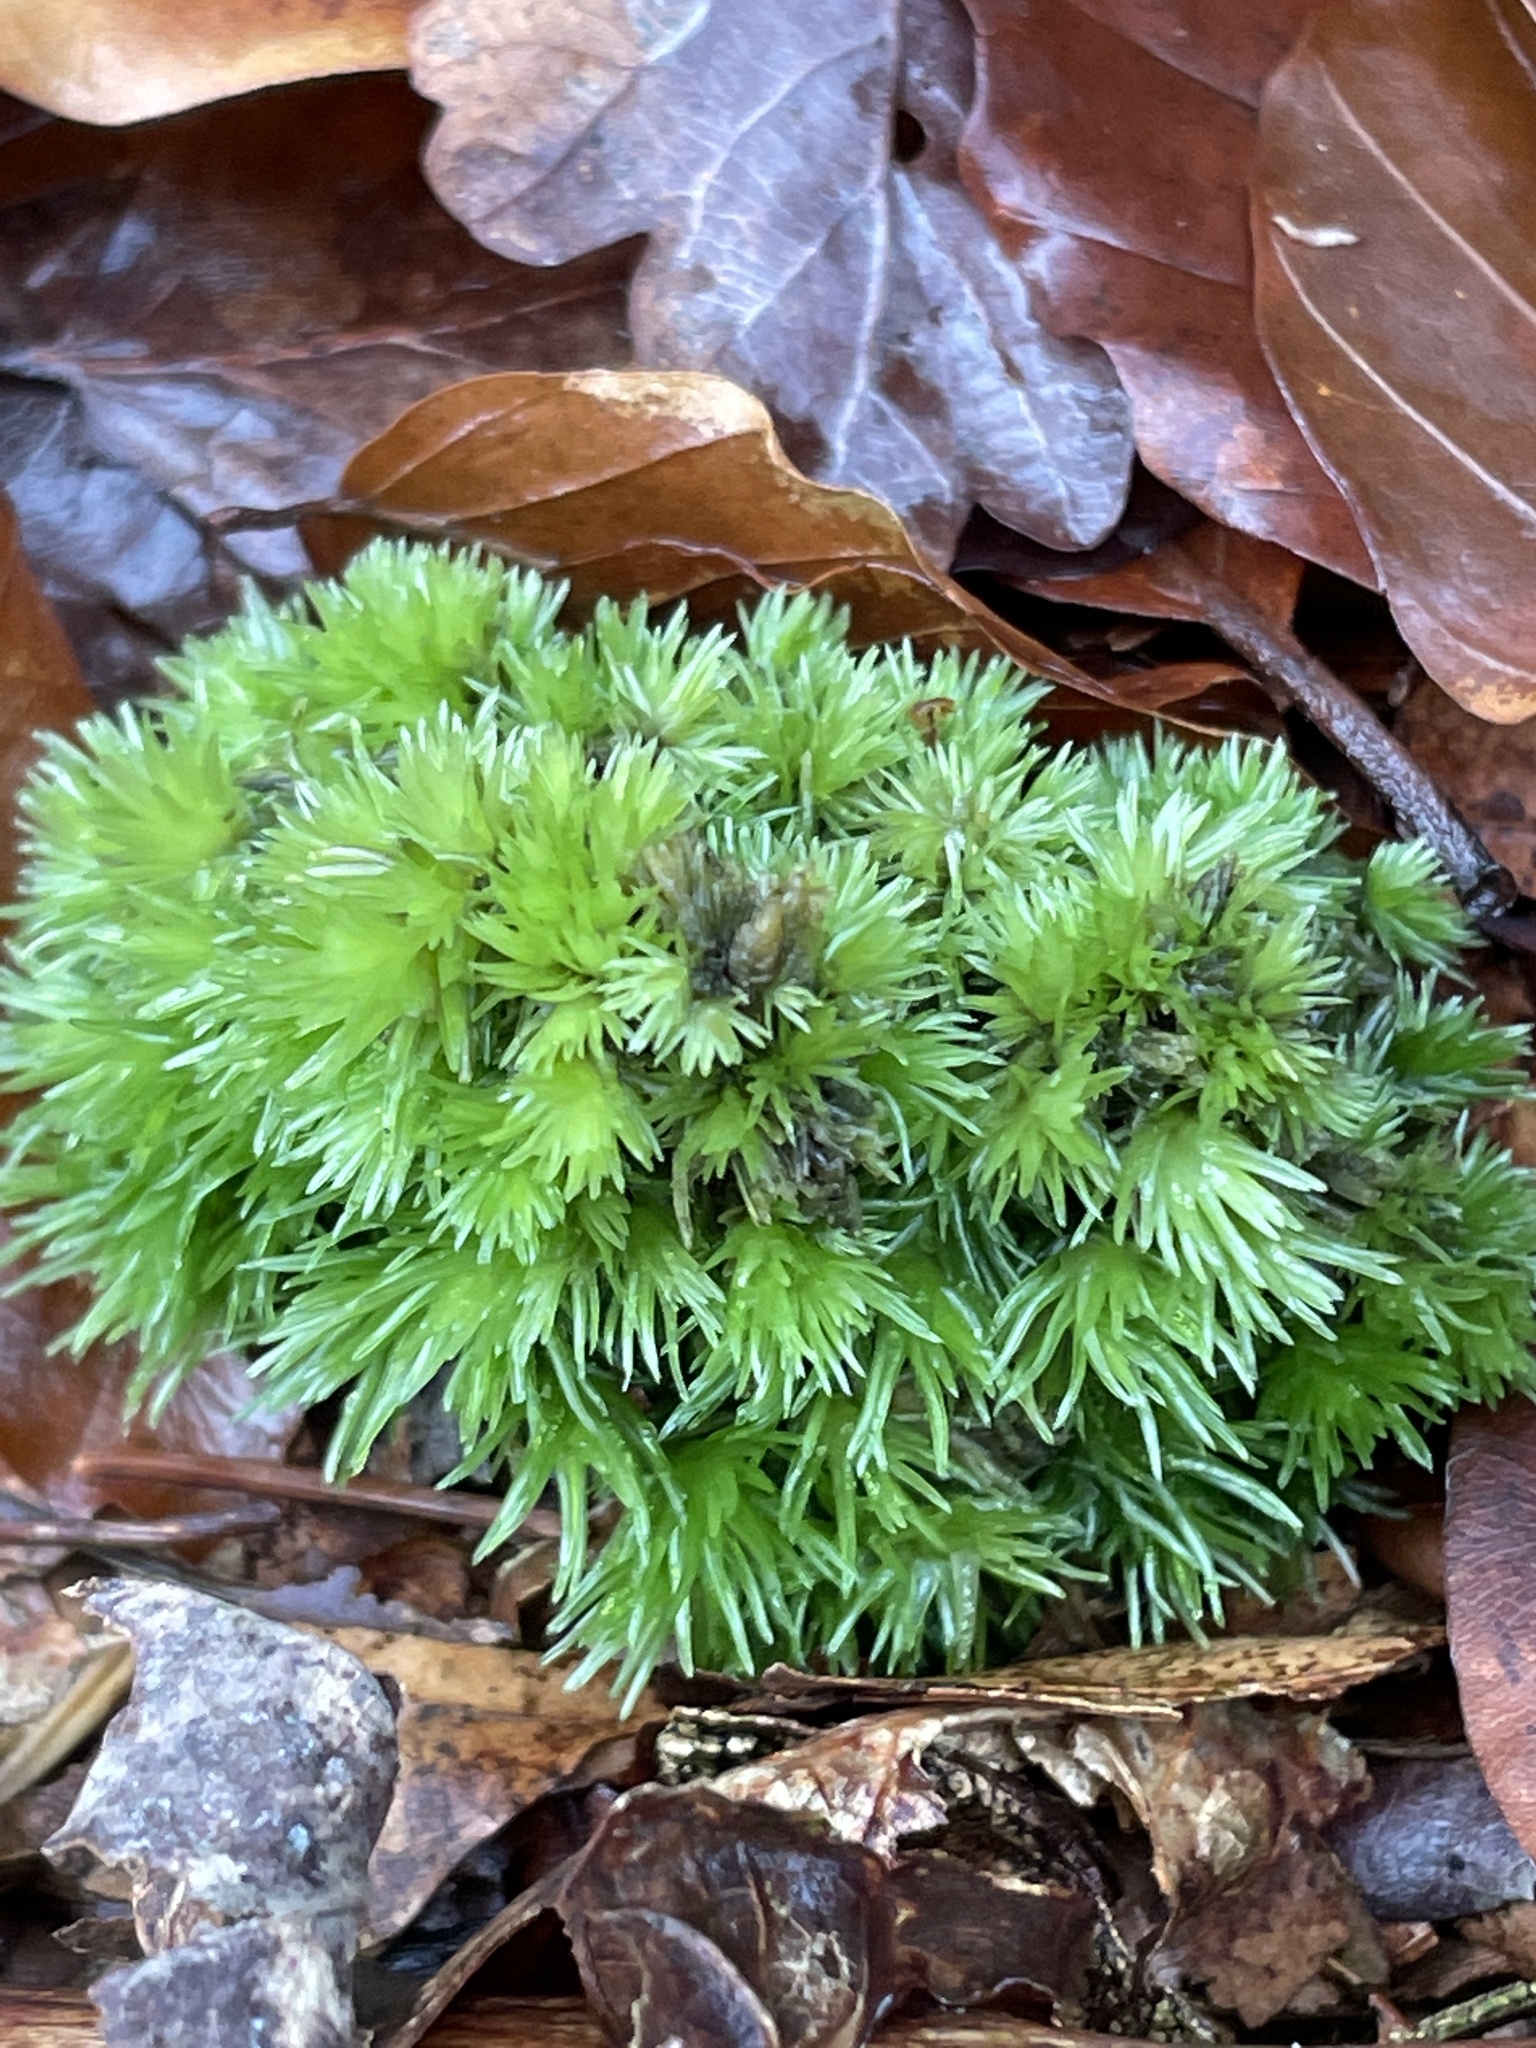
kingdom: Plantae
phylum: Bryophyta
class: Bryopsida
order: Dicranales
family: Leucobryaceae
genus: Leucobryum
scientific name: Leucobryum glaucum
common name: Large white-moss
